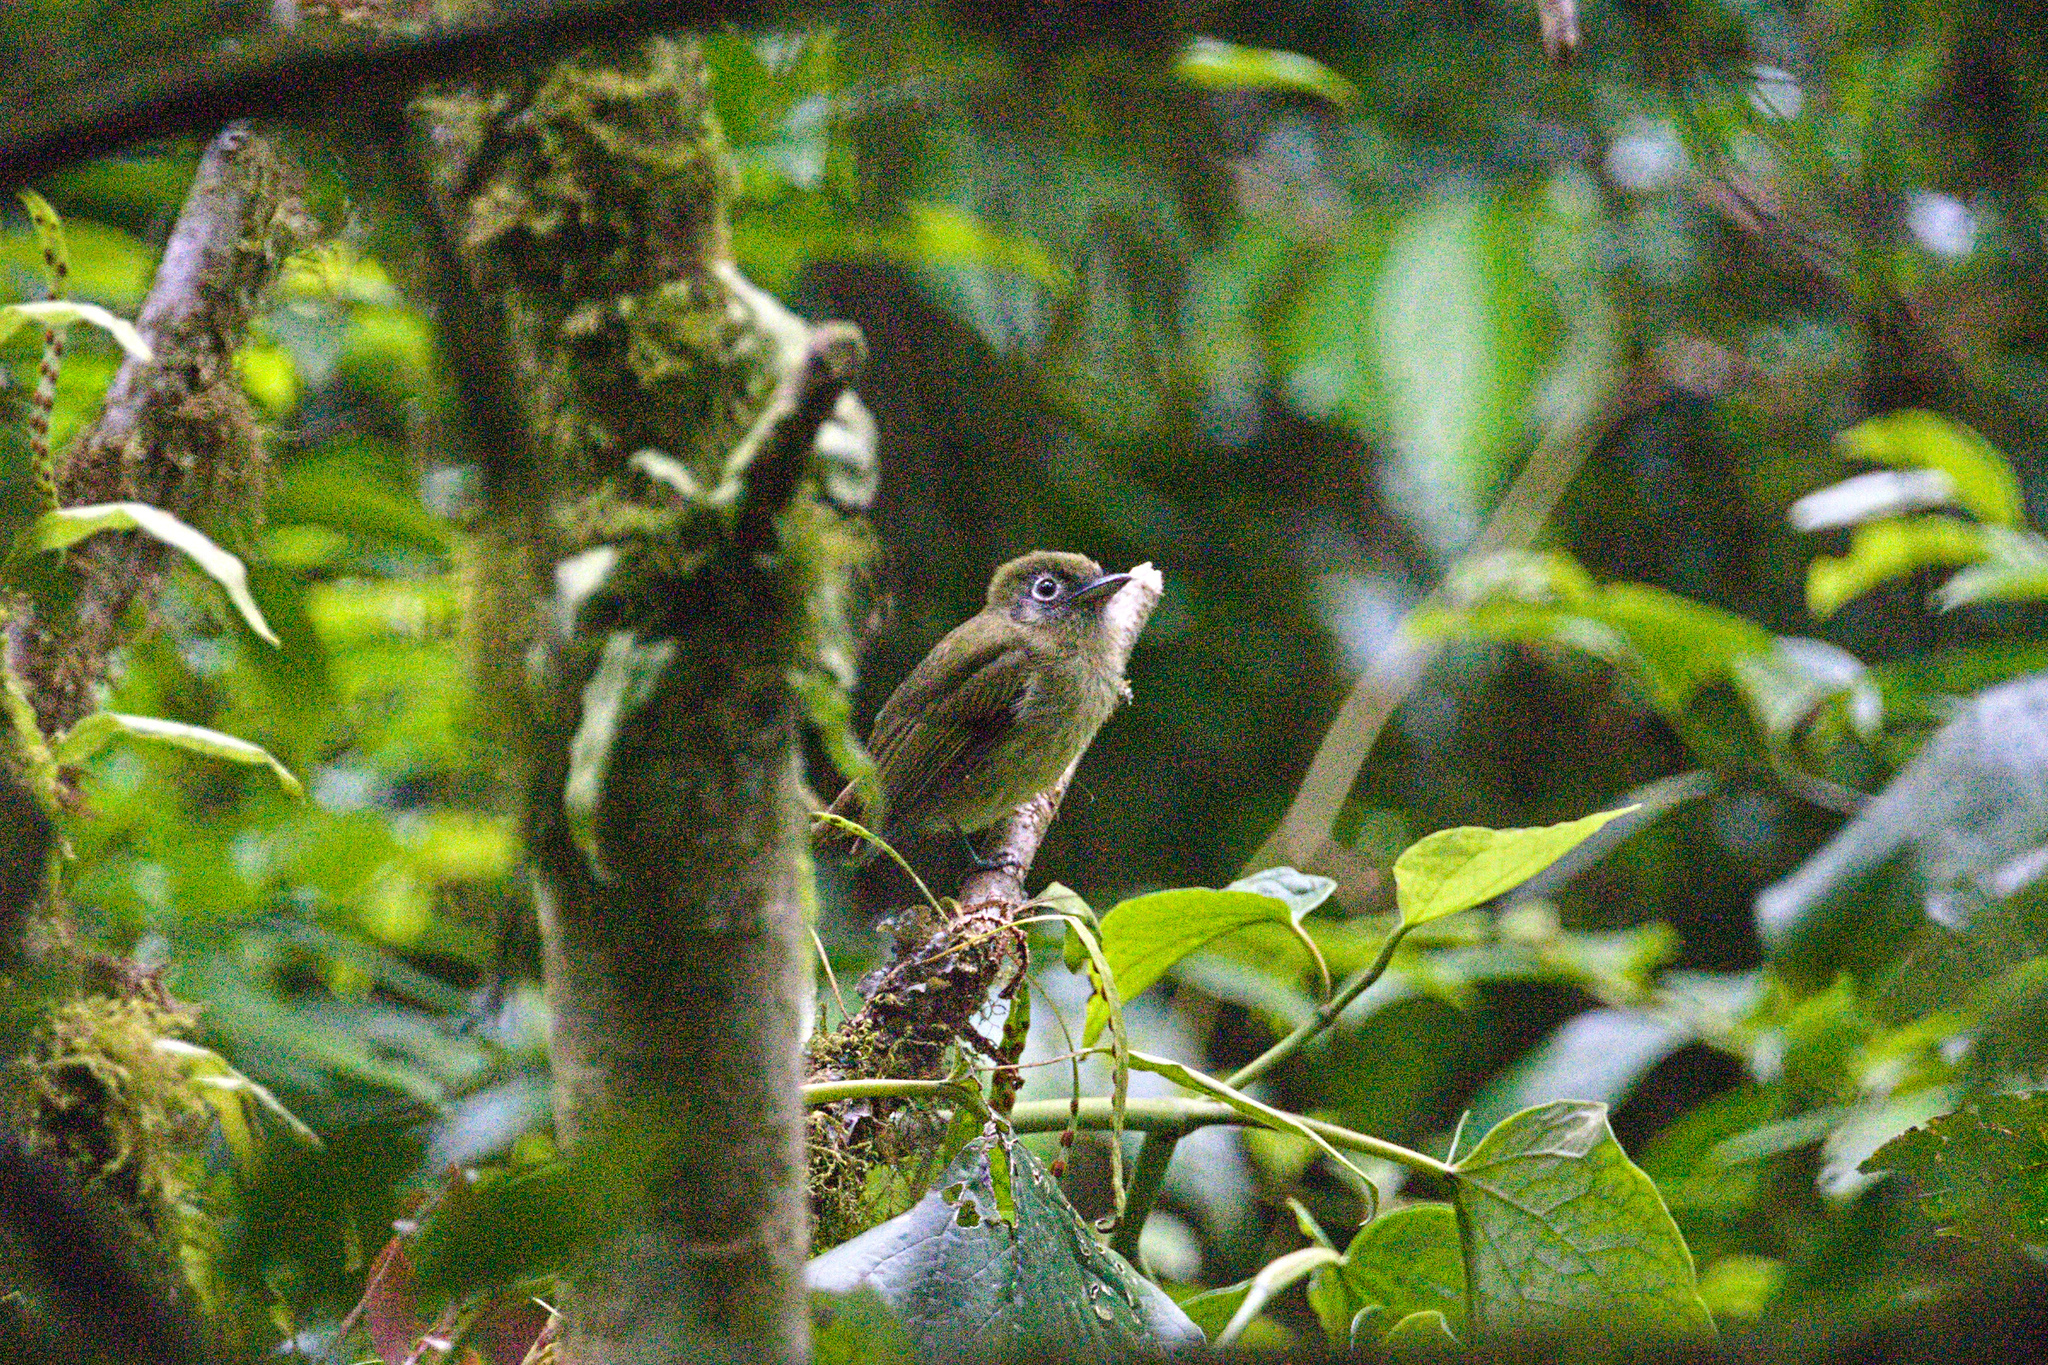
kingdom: Animalia
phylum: Chordata
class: Aves
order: Passeriformes
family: Tyrannidae
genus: Rhynchocyclus
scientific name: Rhynchocyclus brevirostris
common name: Eye-ringed flatbill
